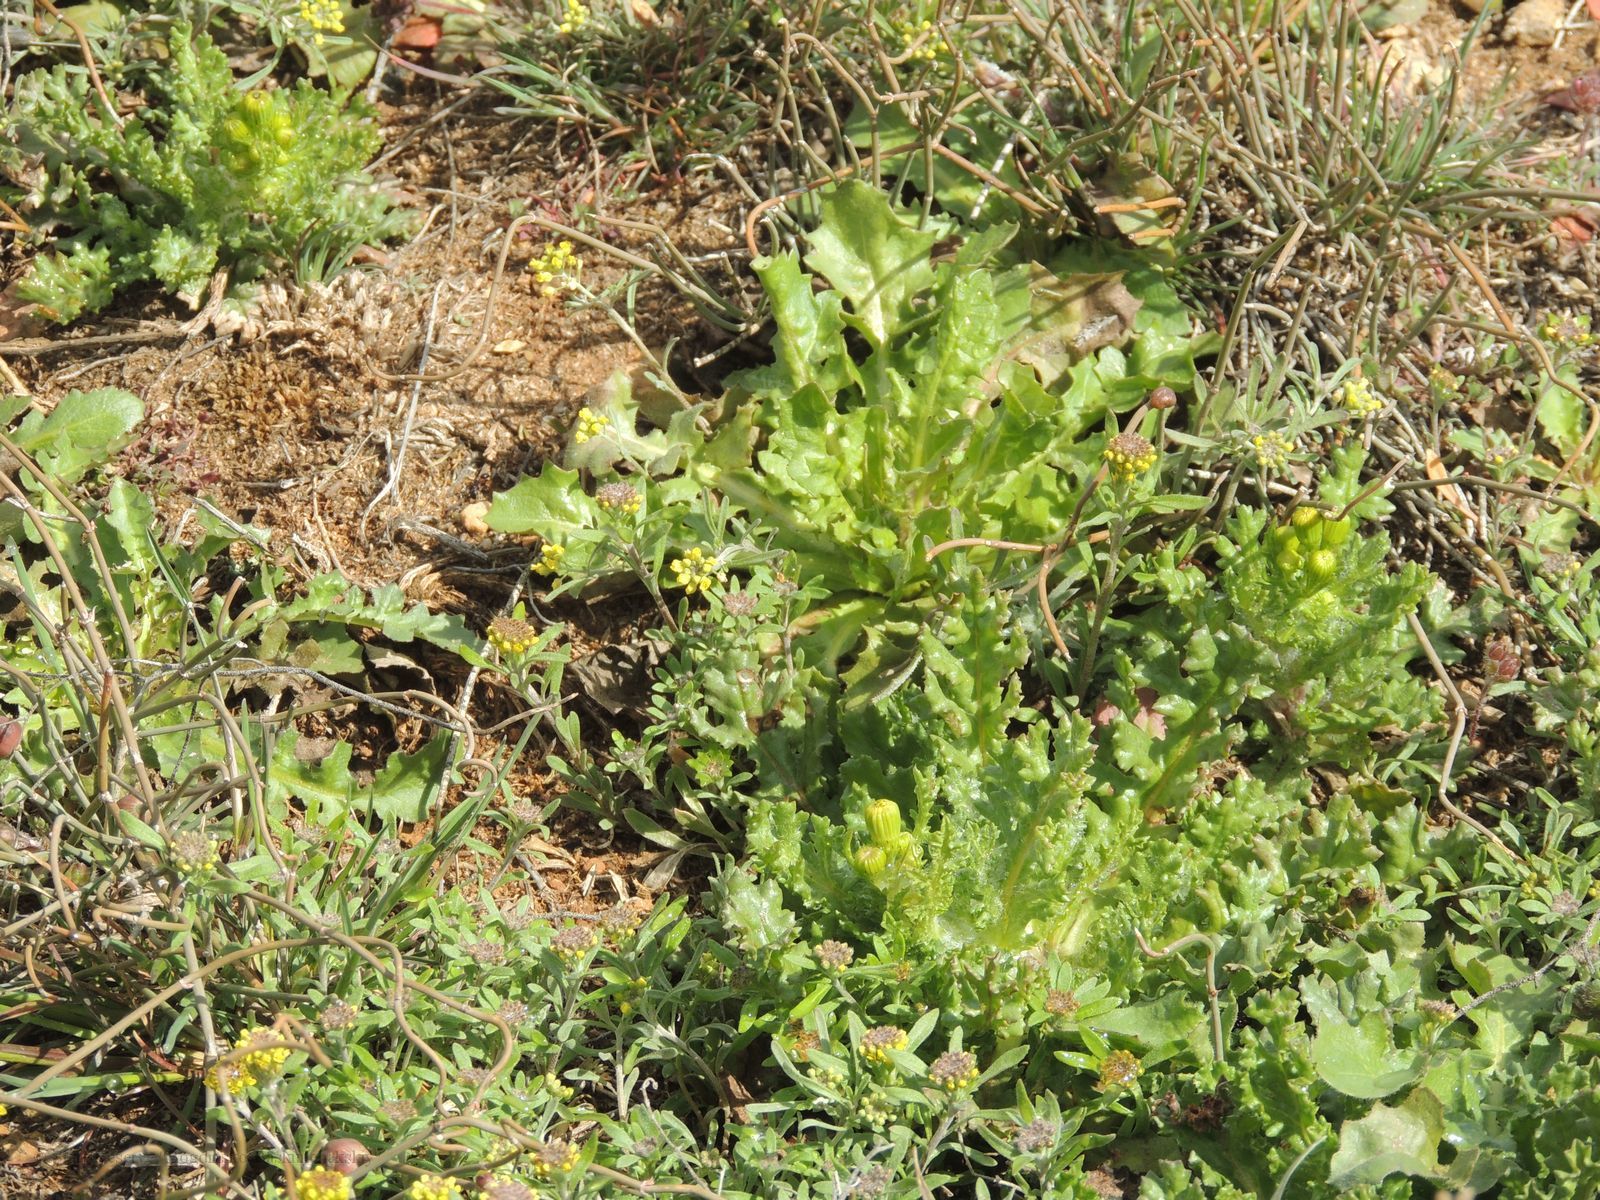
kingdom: Plantae
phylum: Tracheophyta
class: Magnoliopsida
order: Asterales
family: Asteraceae
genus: Senecio
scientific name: Senecio vernalis
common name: Eastern groundsel
